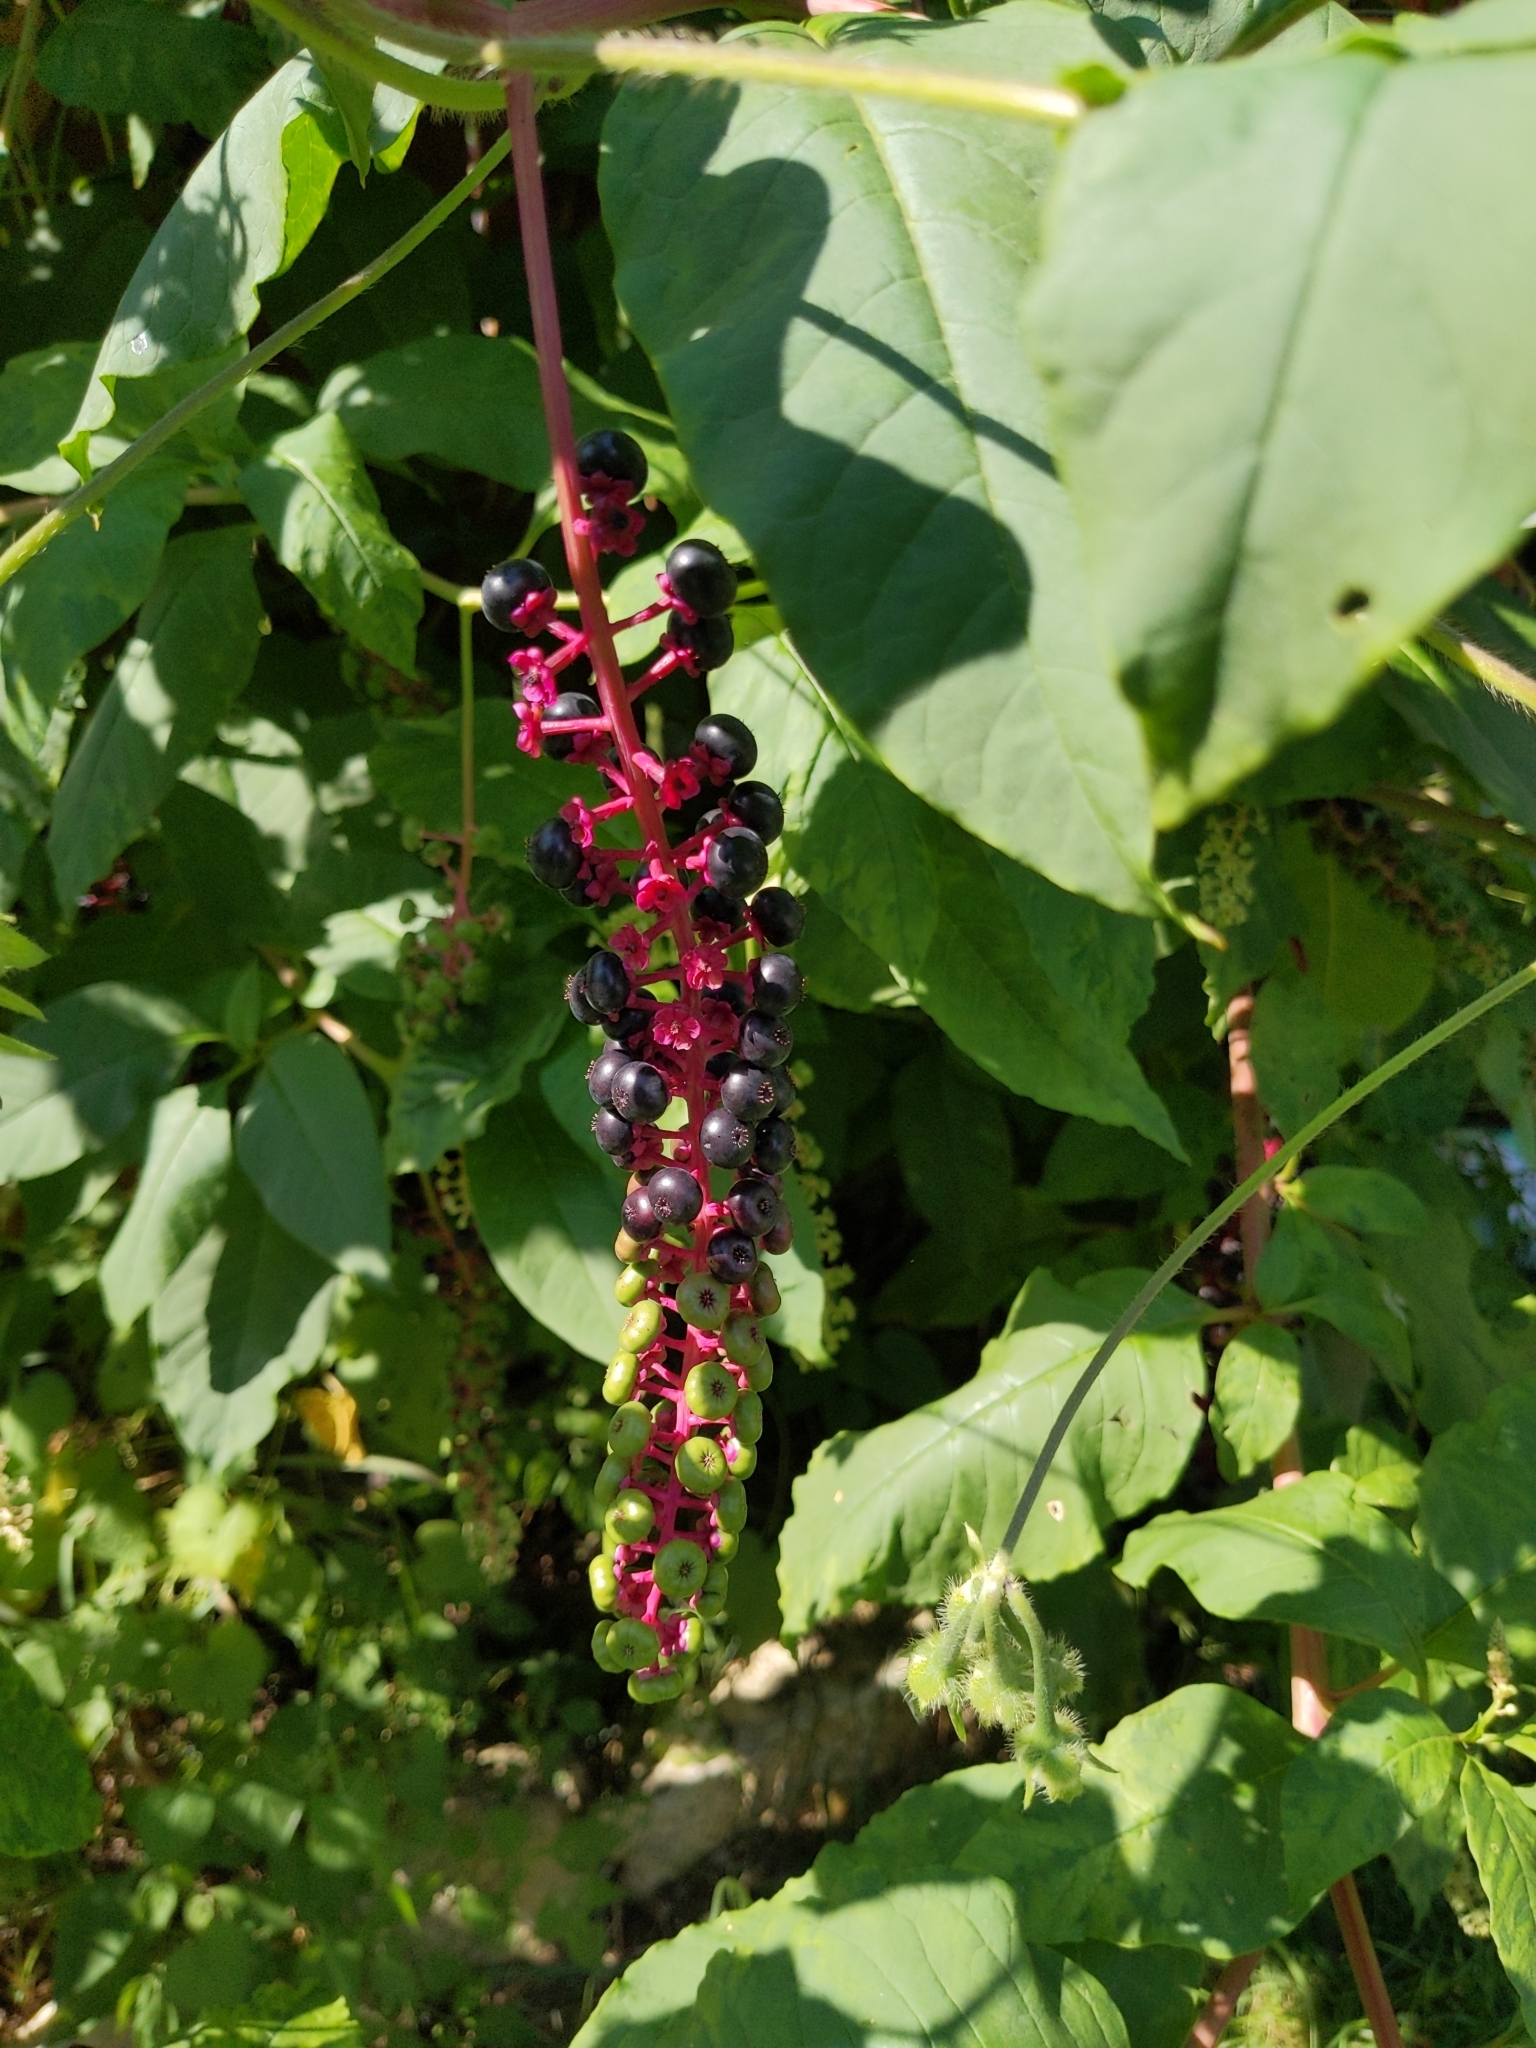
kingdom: Plantae
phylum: Tracheophyta
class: Magnoliopsida
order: Caryophyllales
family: Phytolaccaceae
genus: Phytolacca
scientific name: Phytolacca americana
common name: American pokeweed
